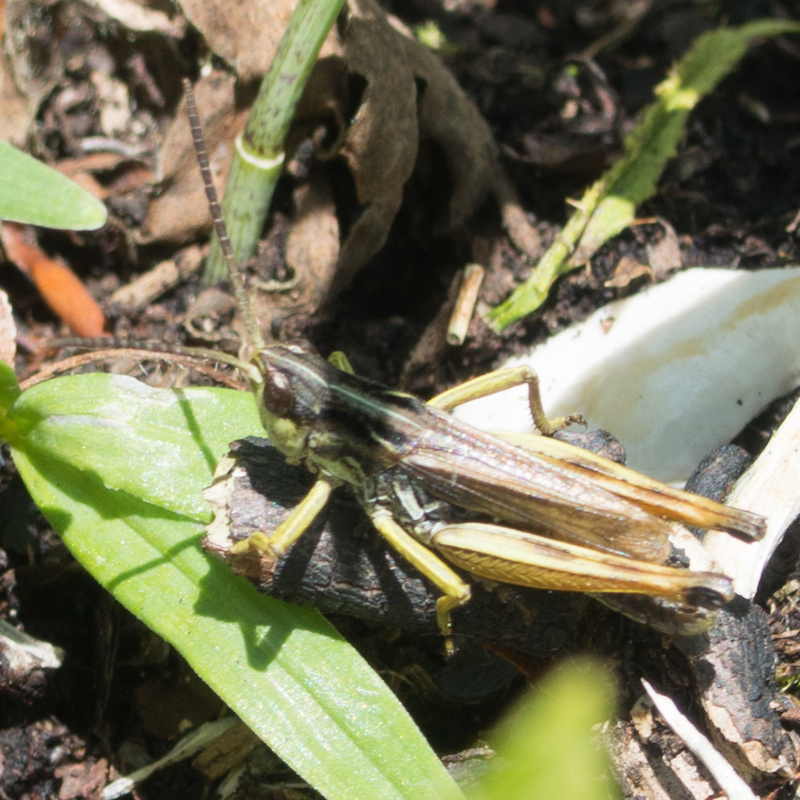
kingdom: Animalia
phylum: Arthropoda
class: Insecta
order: Orthoptera
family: Acrididae
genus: Chorthippus
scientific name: Chorthippus alticola
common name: Alpine grasshopper
